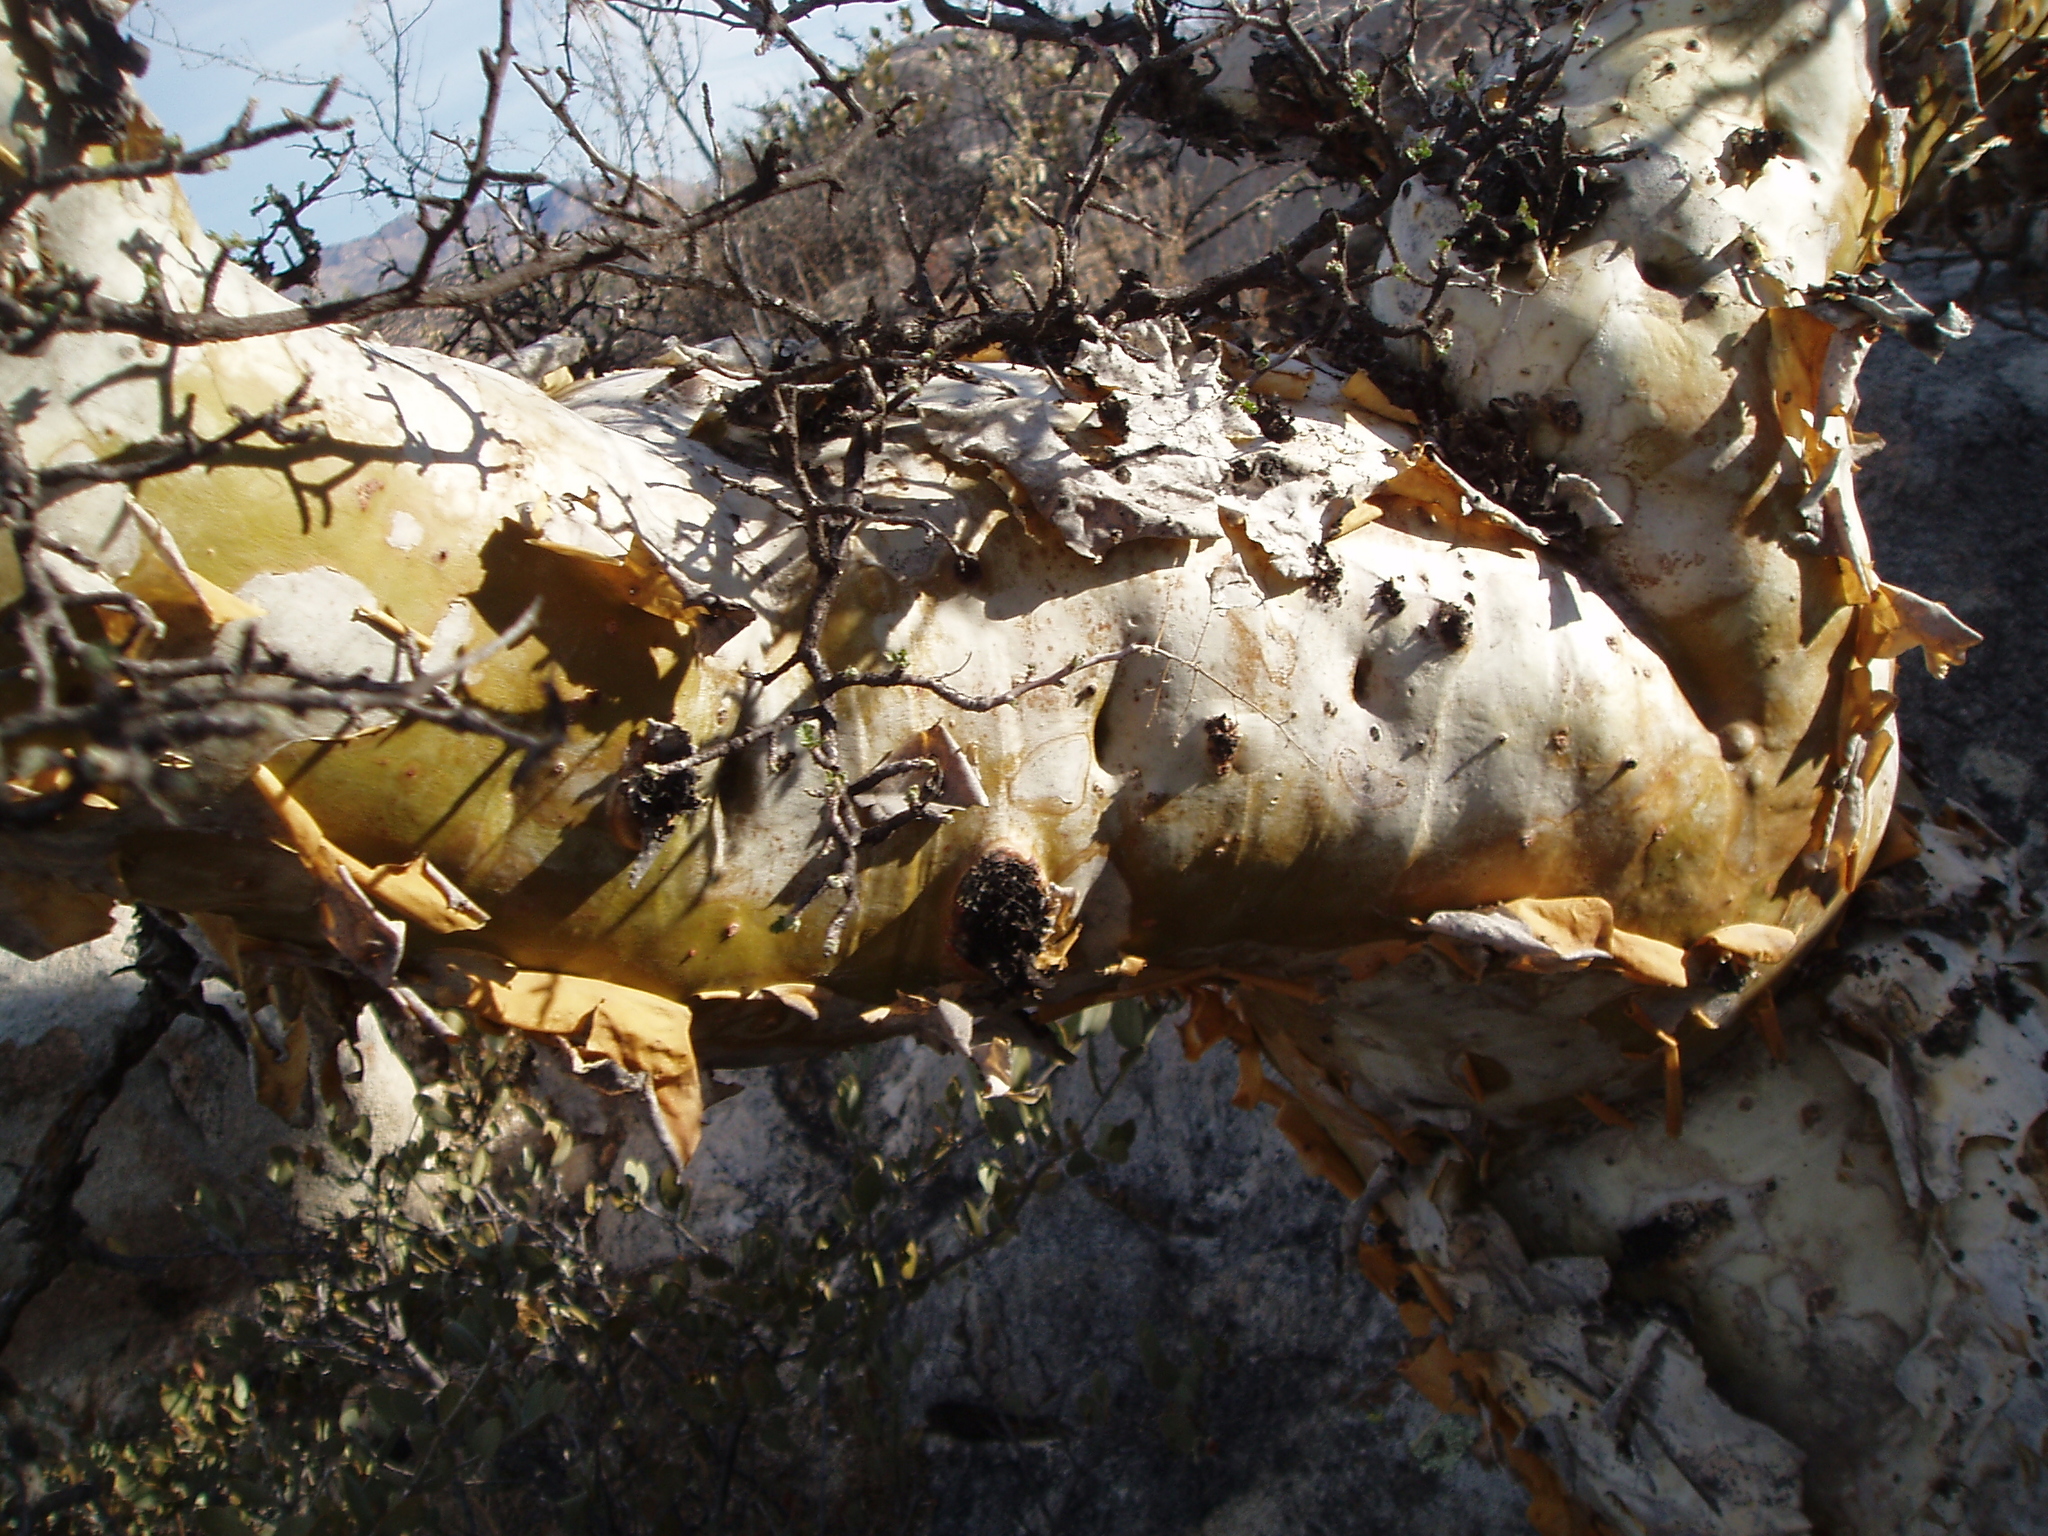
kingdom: Plantae
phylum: Tracheophyta
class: Magnoliopsida
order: Sapindales
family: Anacardiaceae
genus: Pachycormus
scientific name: Pachycormus discolor
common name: Succulent elephant trees
